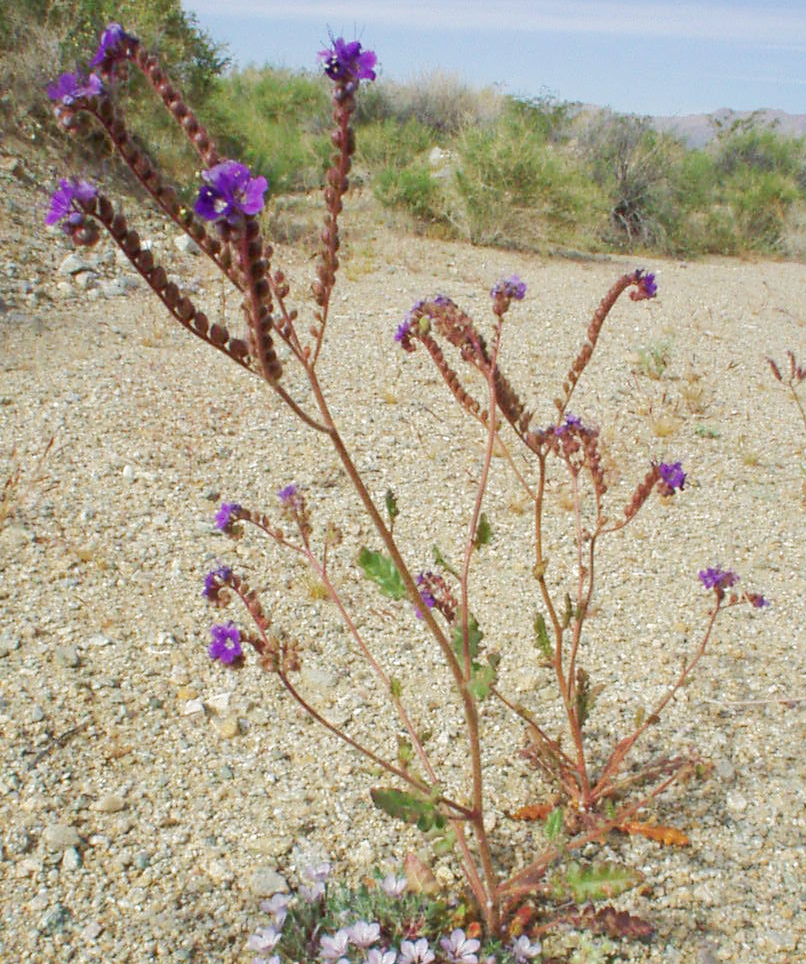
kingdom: Plantae
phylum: Tracheophyta
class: Magnoliopsida
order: Boraginales
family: Hydrophyllaceae
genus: Phacelia
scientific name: Phacelia crenulata
